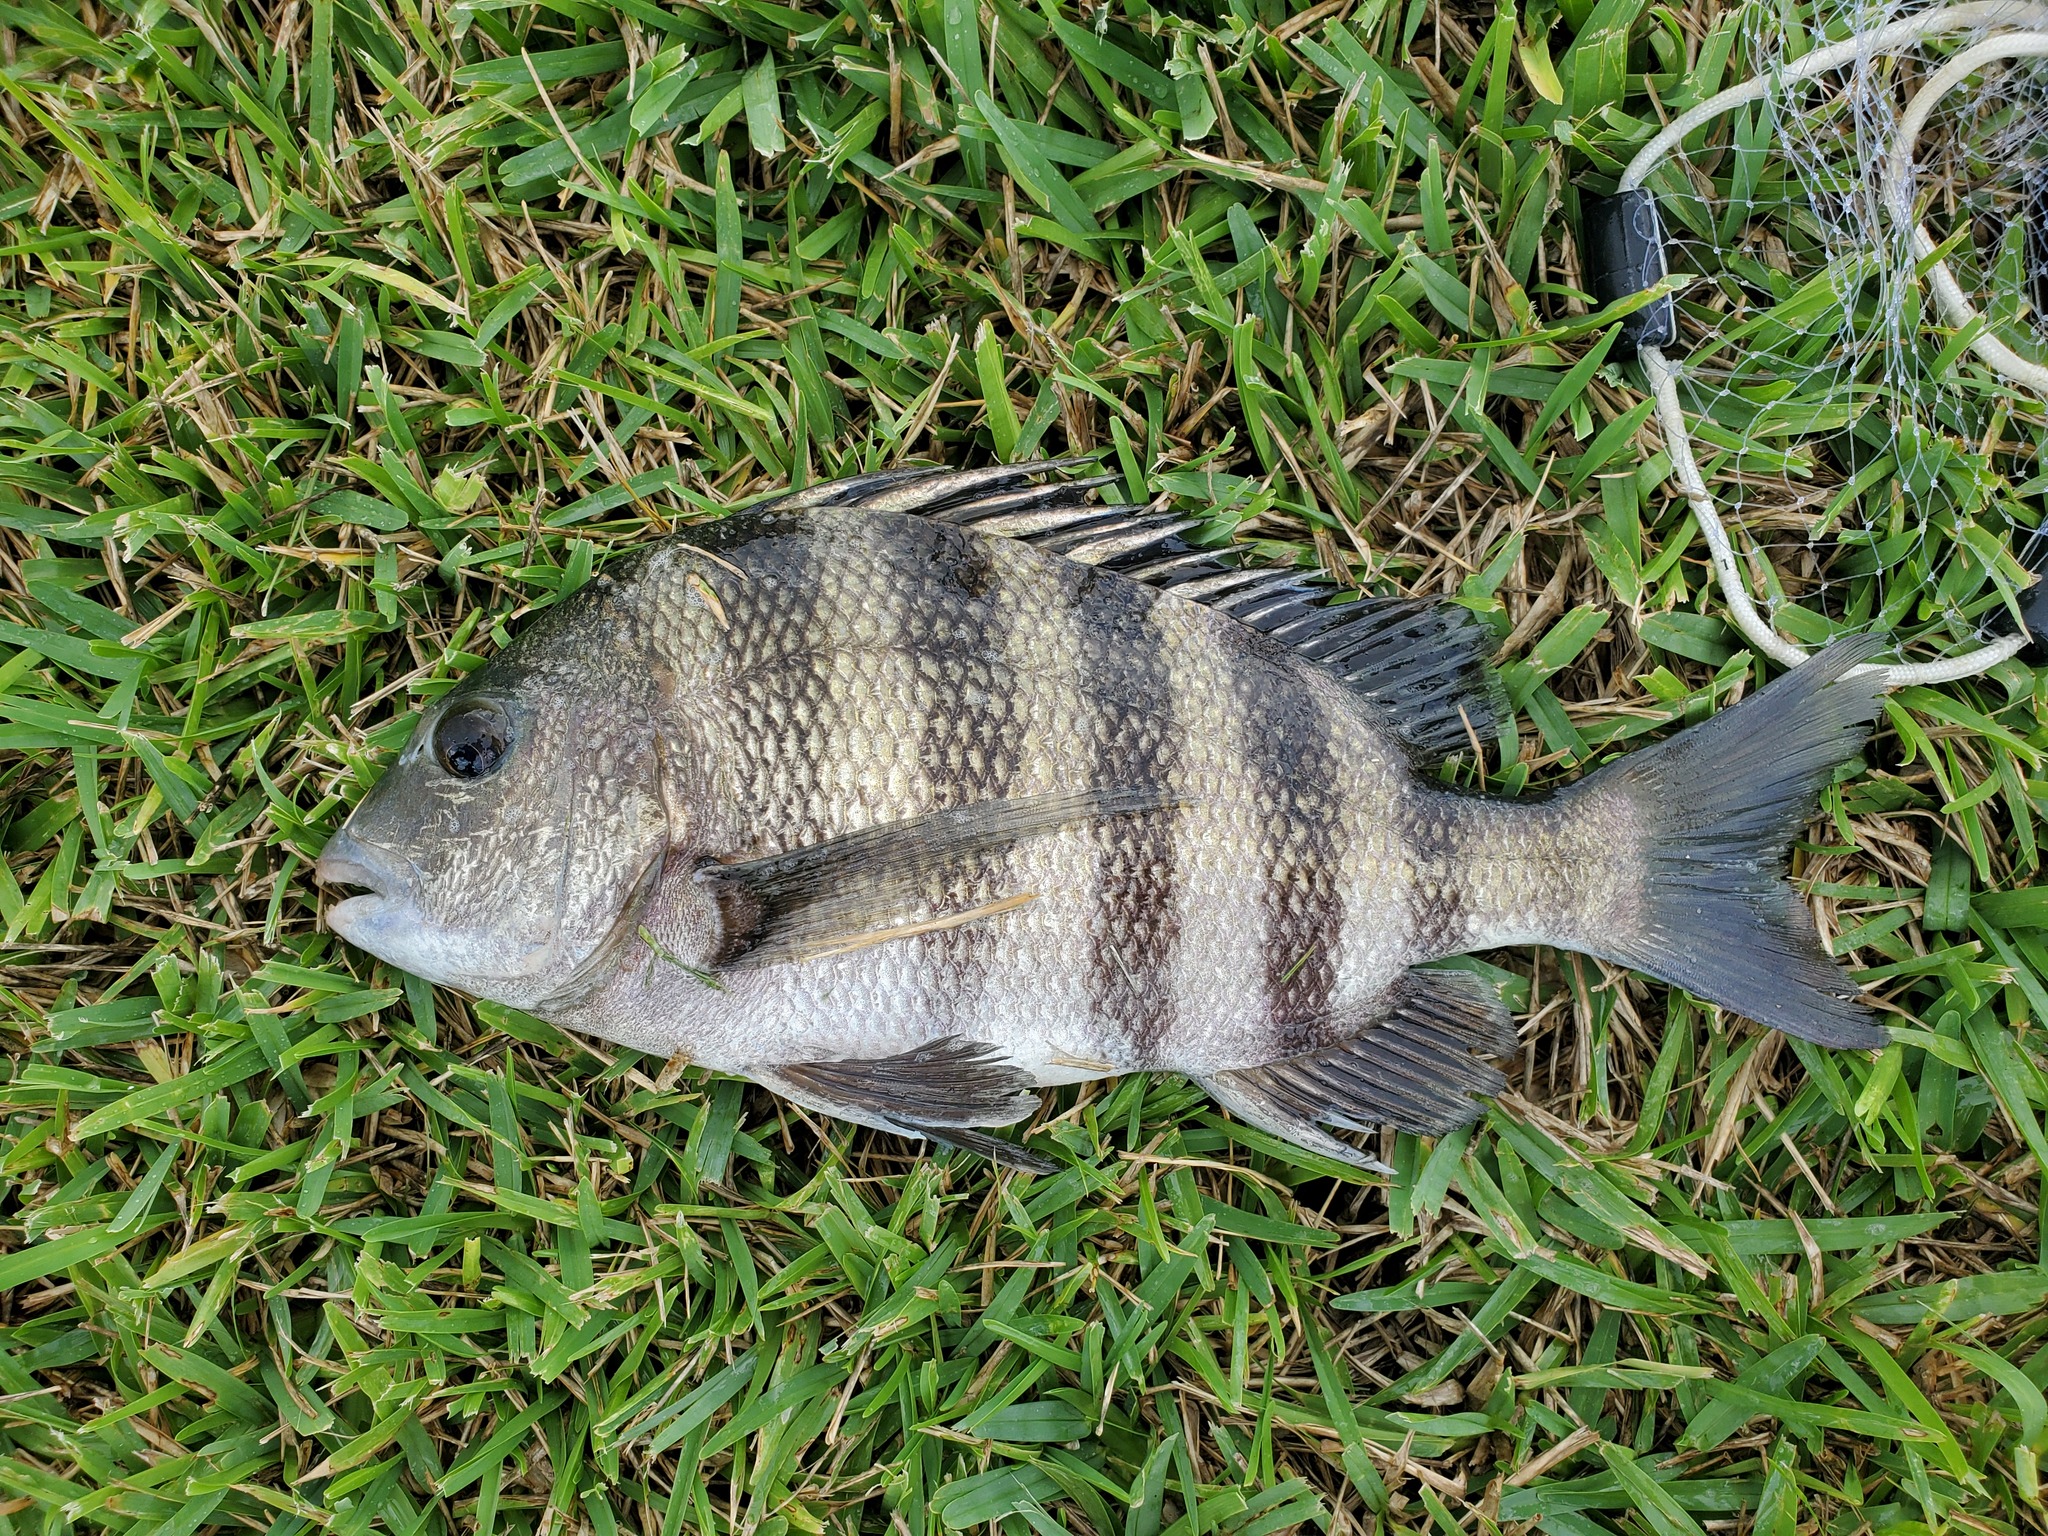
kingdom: Animalia
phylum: Chordata
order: Perciformes
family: Sparidae
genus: Archosargus
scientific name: Archosargus probatocephalus
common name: Sheepshead
